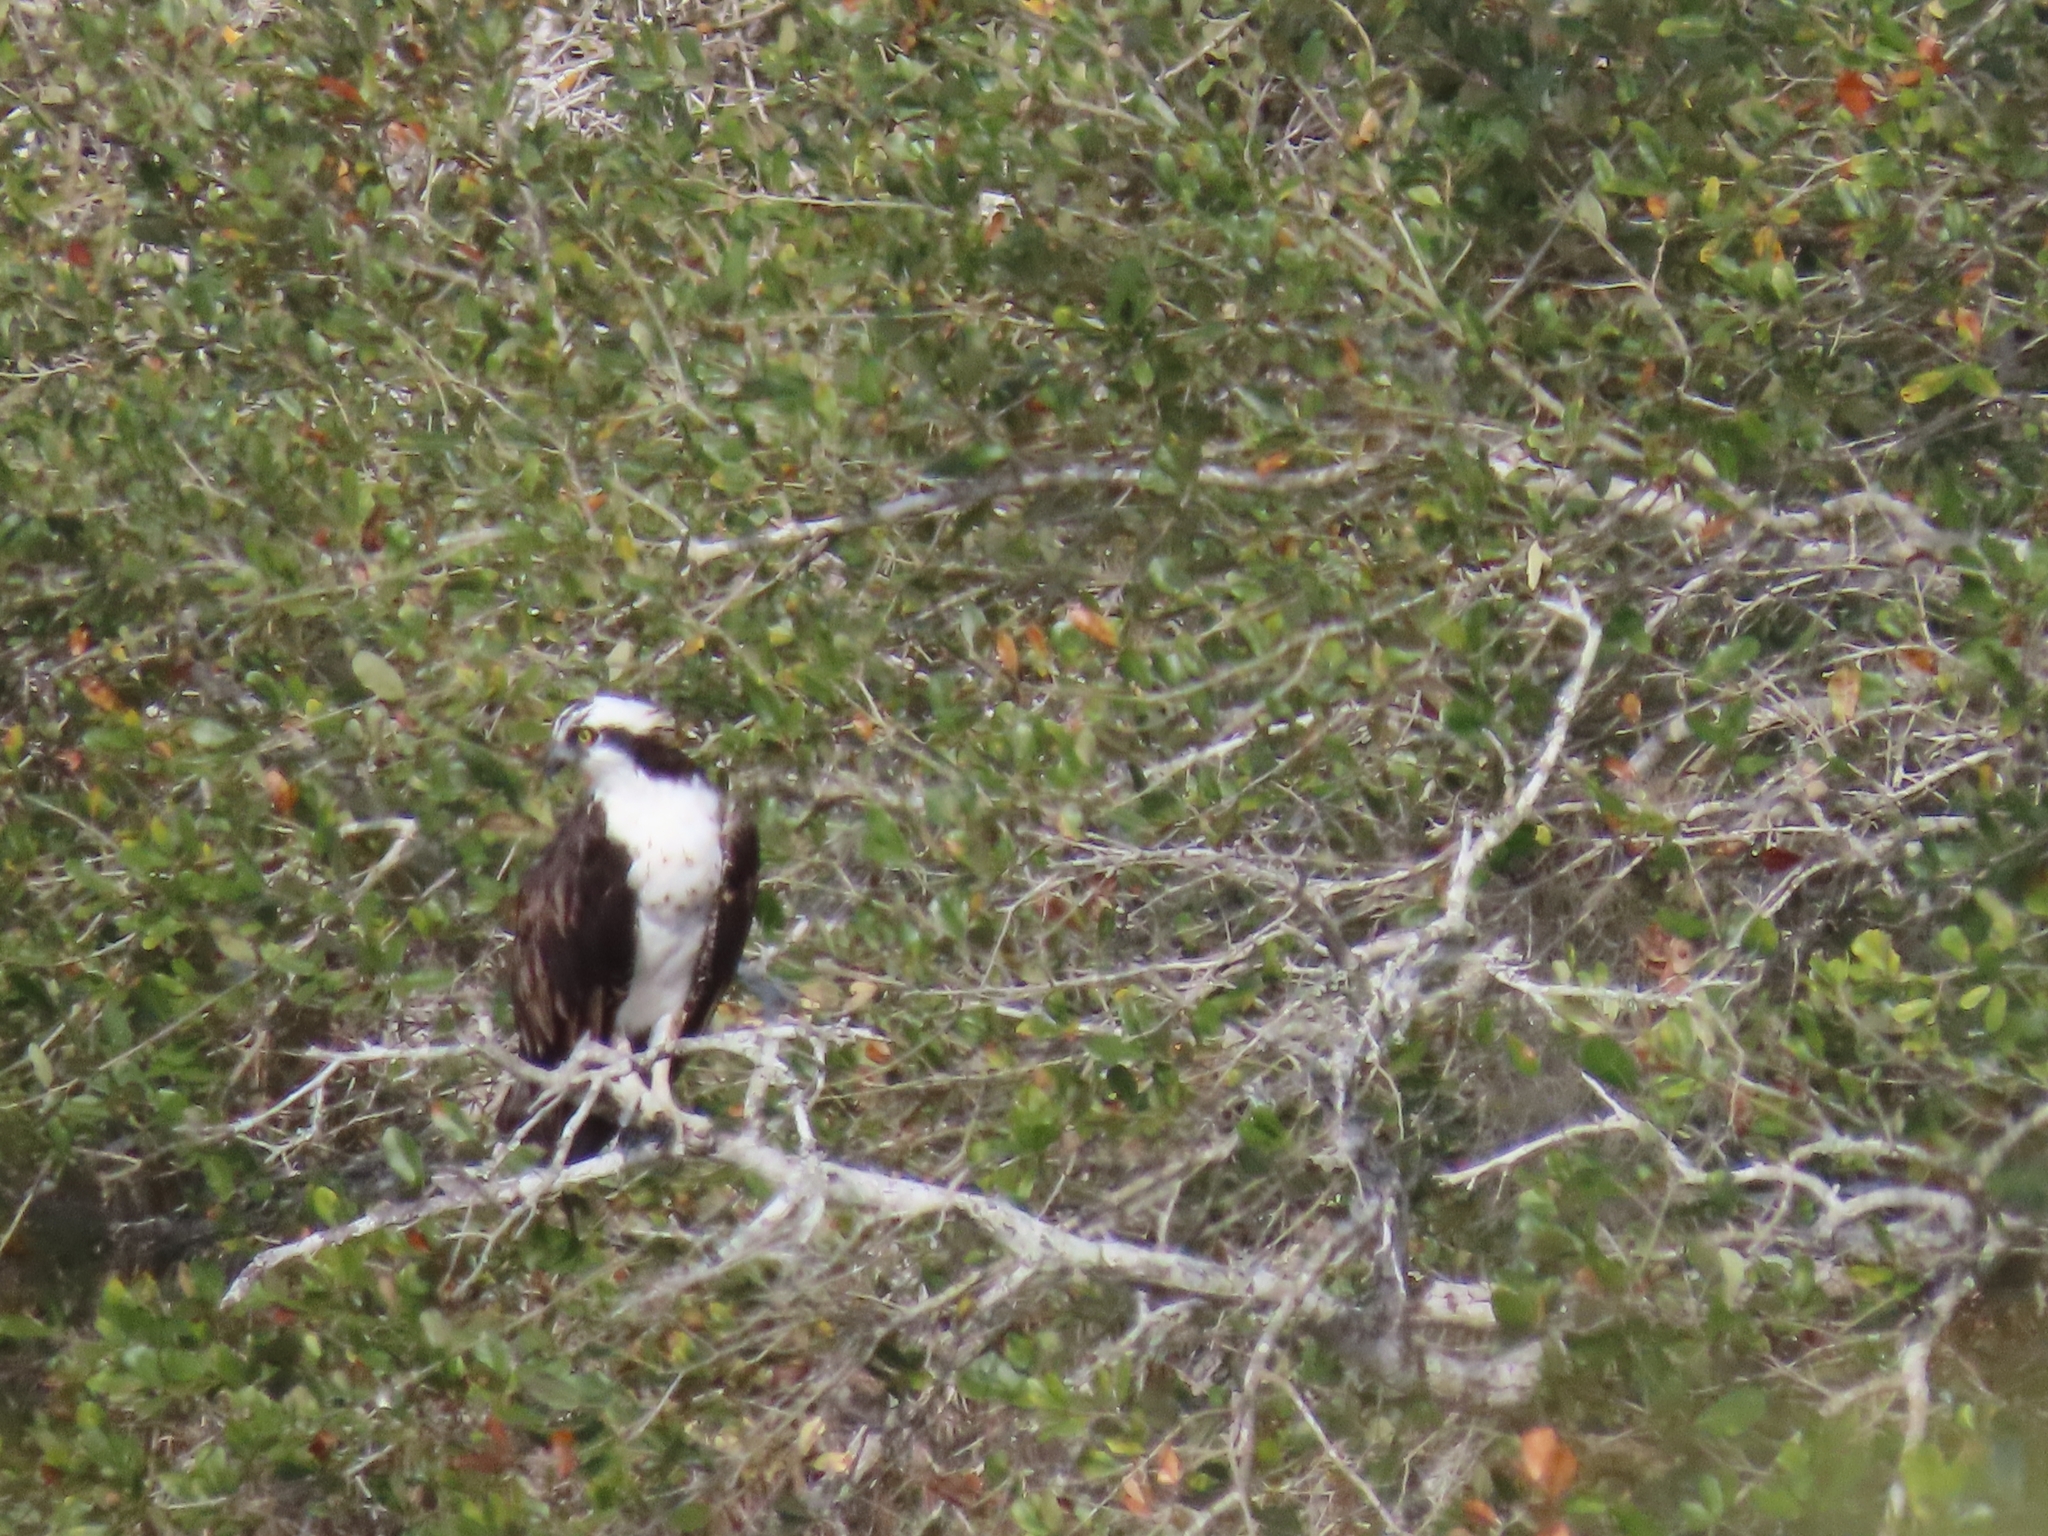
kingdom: Animalia
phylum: Chordata
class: Aves
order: Accipitriformes
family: Pandionidae
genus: Pandion
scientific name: Pandion haliaetus
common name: Osprey
